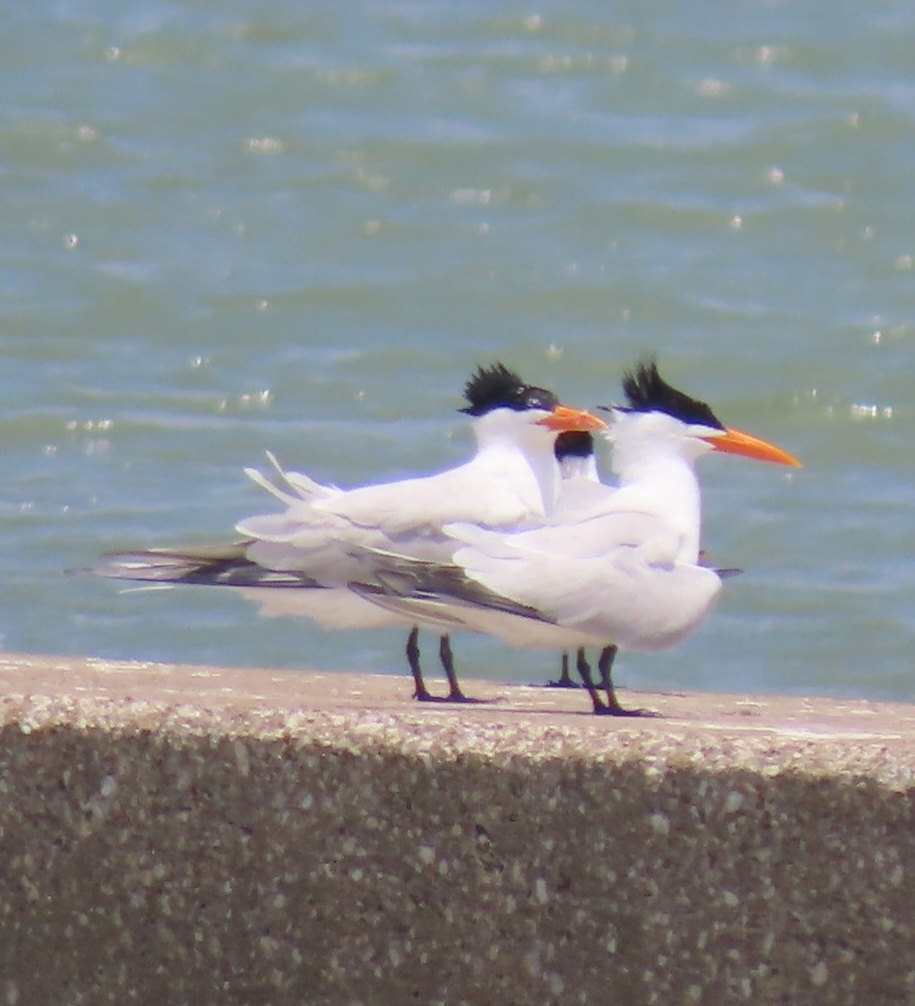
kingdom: Animalia
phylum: Chordata
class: Aves
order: Charadriiformes
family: Laridae
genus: Thalasseus
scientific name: Thalasseus maximus
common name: Royal tern
